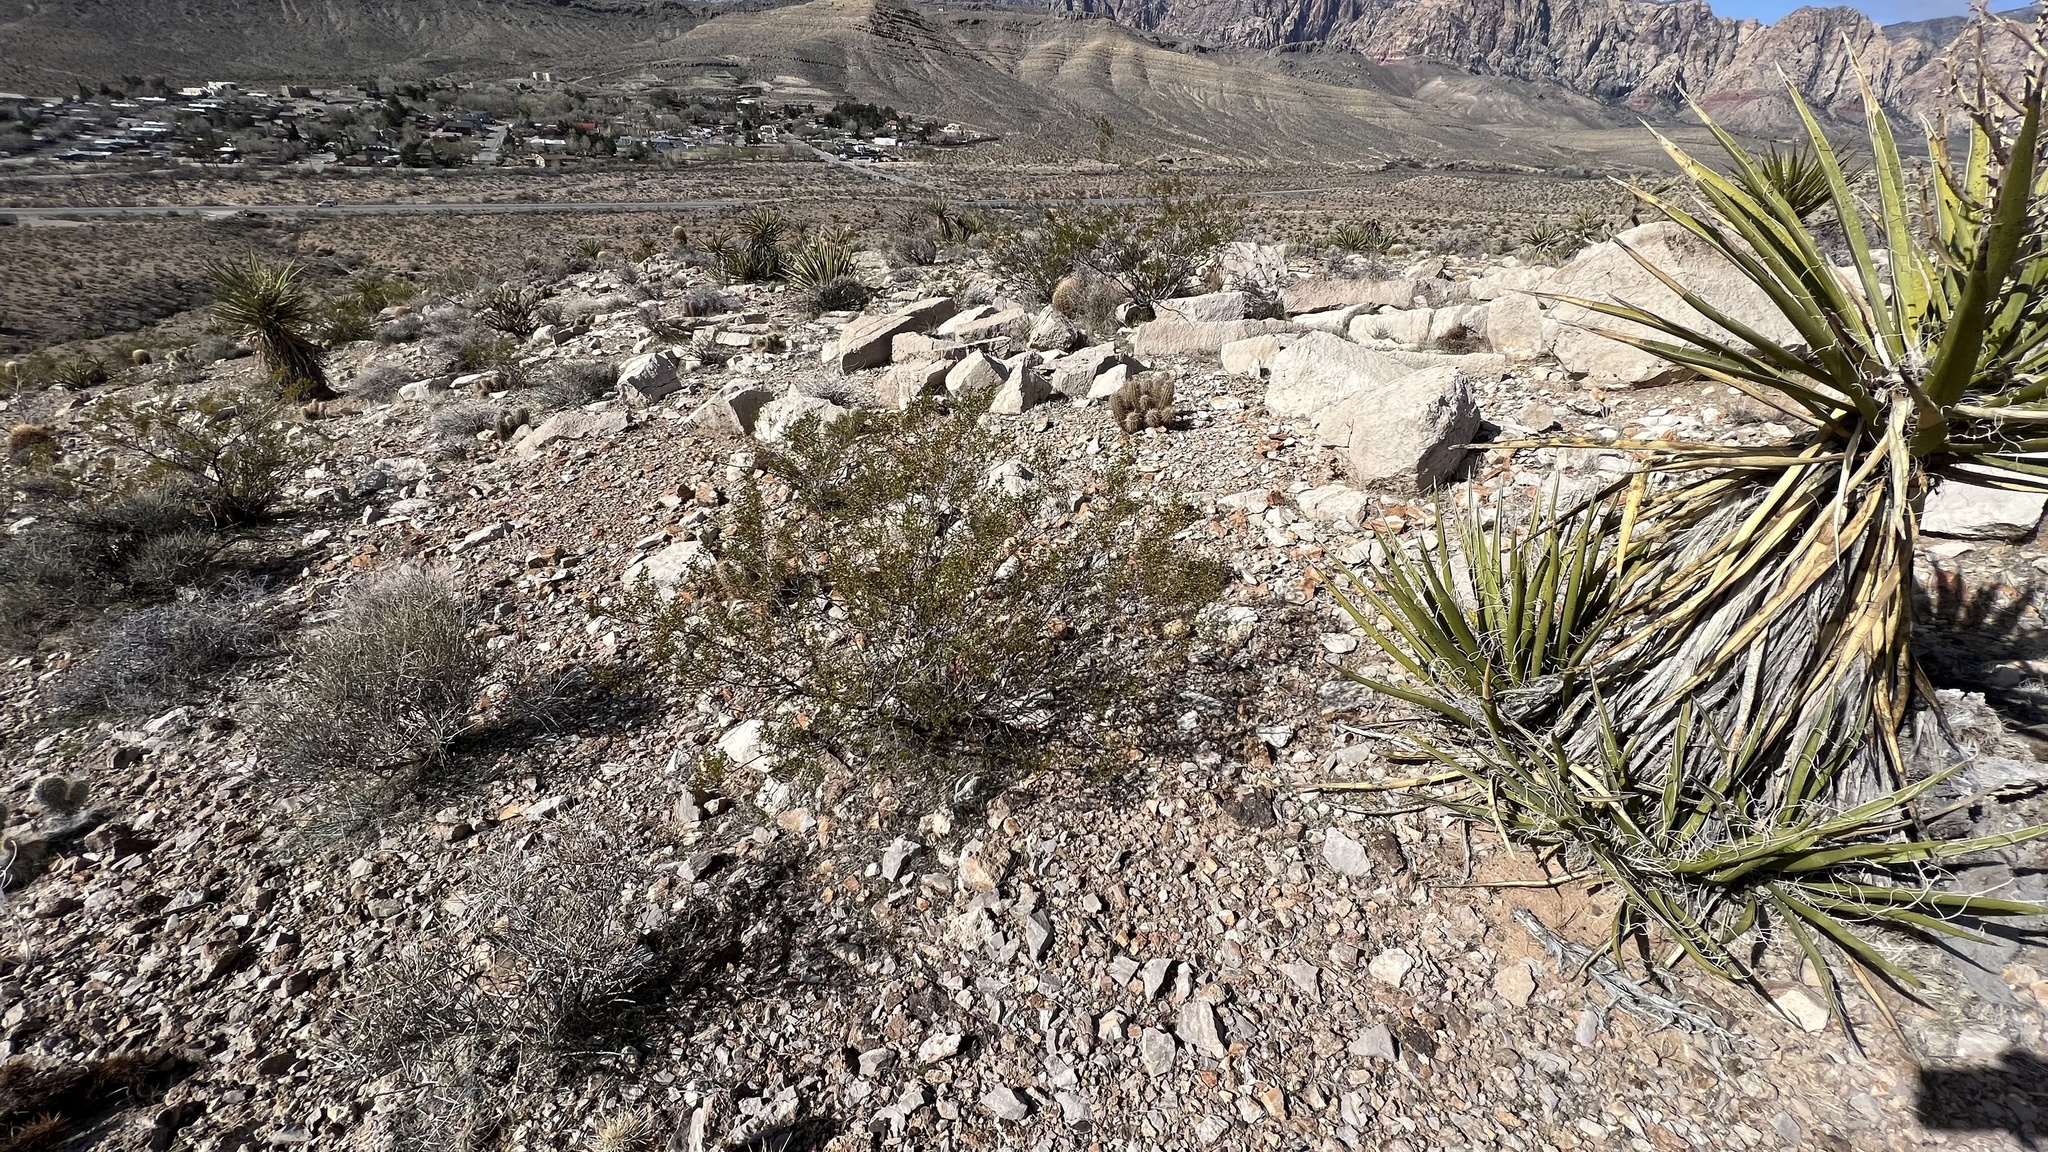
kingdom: Plantae
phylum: Tracheophyta
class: Magnoliopsida
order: Zygophyllales
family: Zygophyllaceae
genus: Larrea
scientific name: Larrea tridentata
